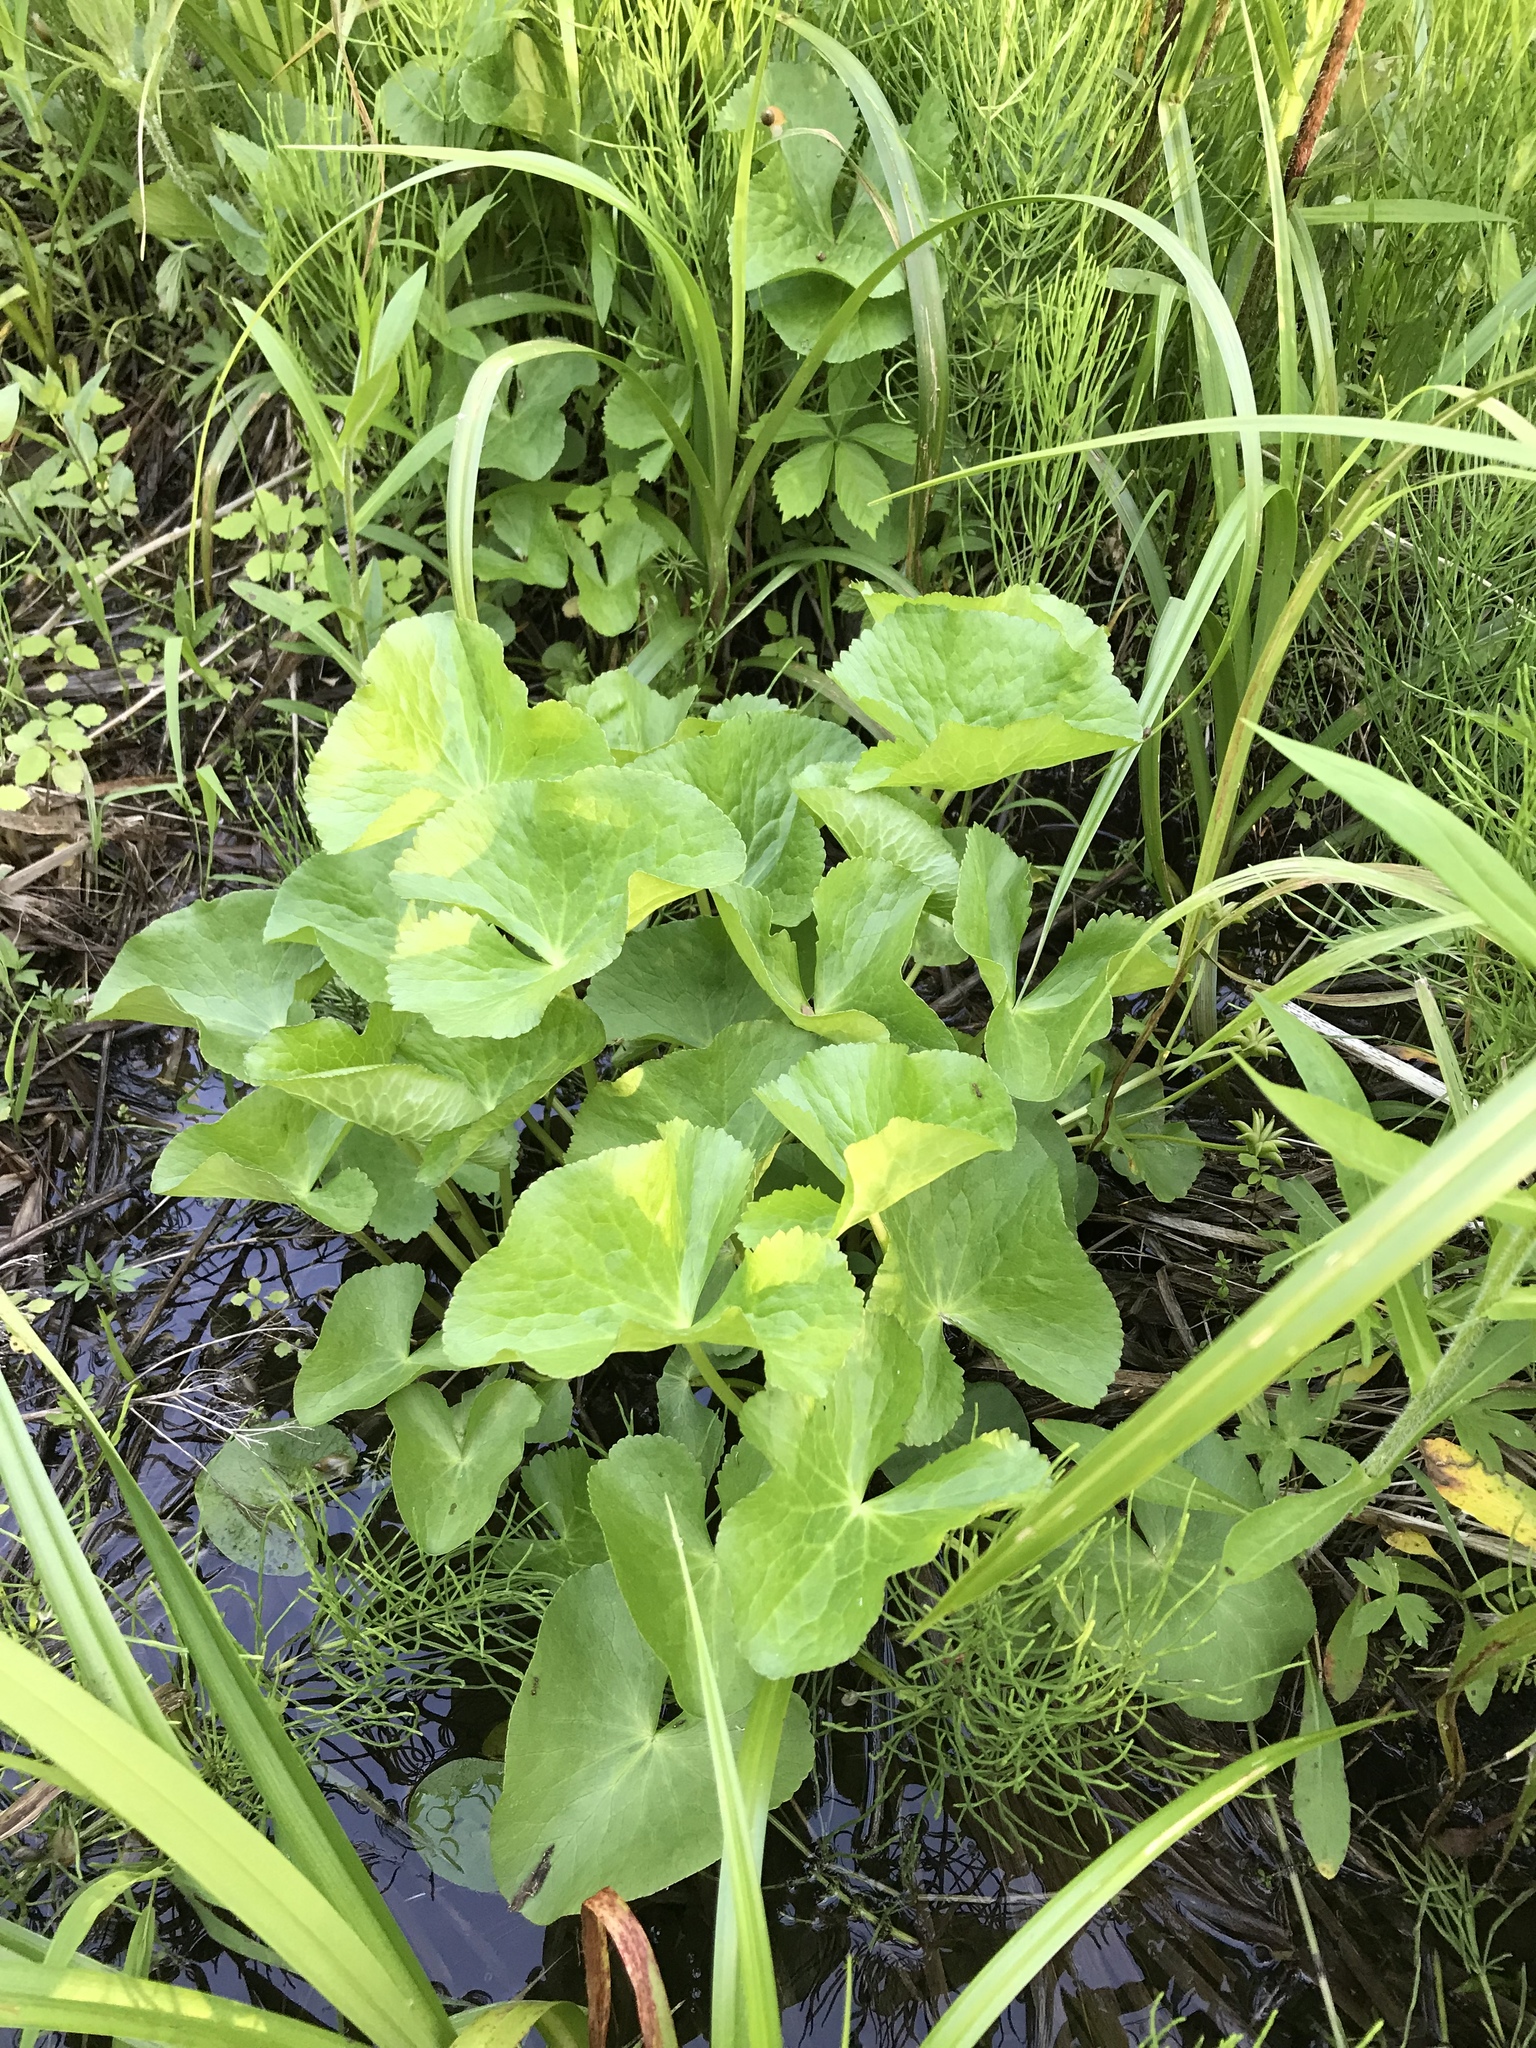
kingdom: Plantae
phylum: Tracheophyta
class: Magnoliopsida
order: Ranunculales
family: Ranunculaceae
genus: Caltha
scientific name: Caltha palustris
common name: Marsh marigold
